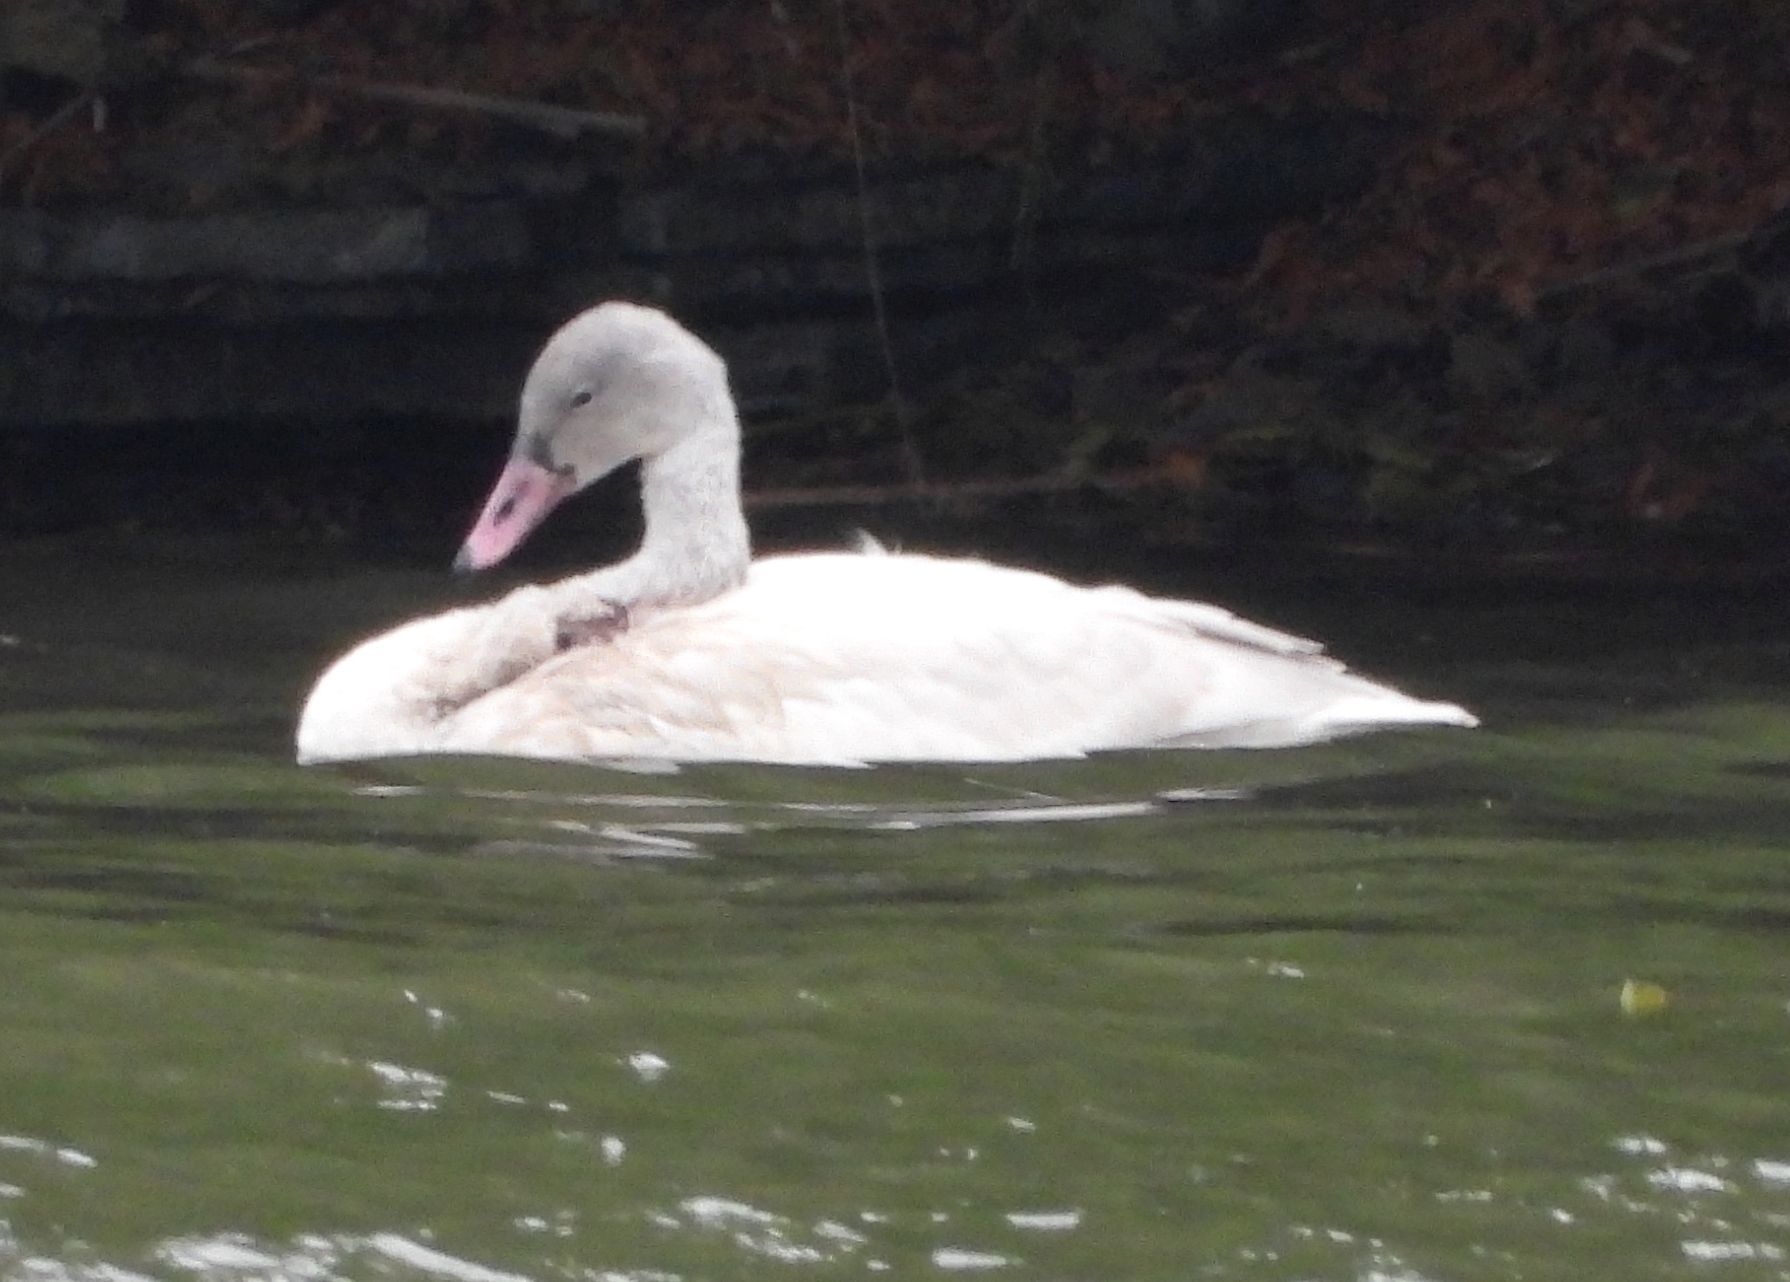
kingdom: Animalia
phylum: Chordata
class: Aves
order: Anseriformes
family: Anatidae
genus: Cygnus
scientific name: Cygnus columbianus
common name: Tundra swan
